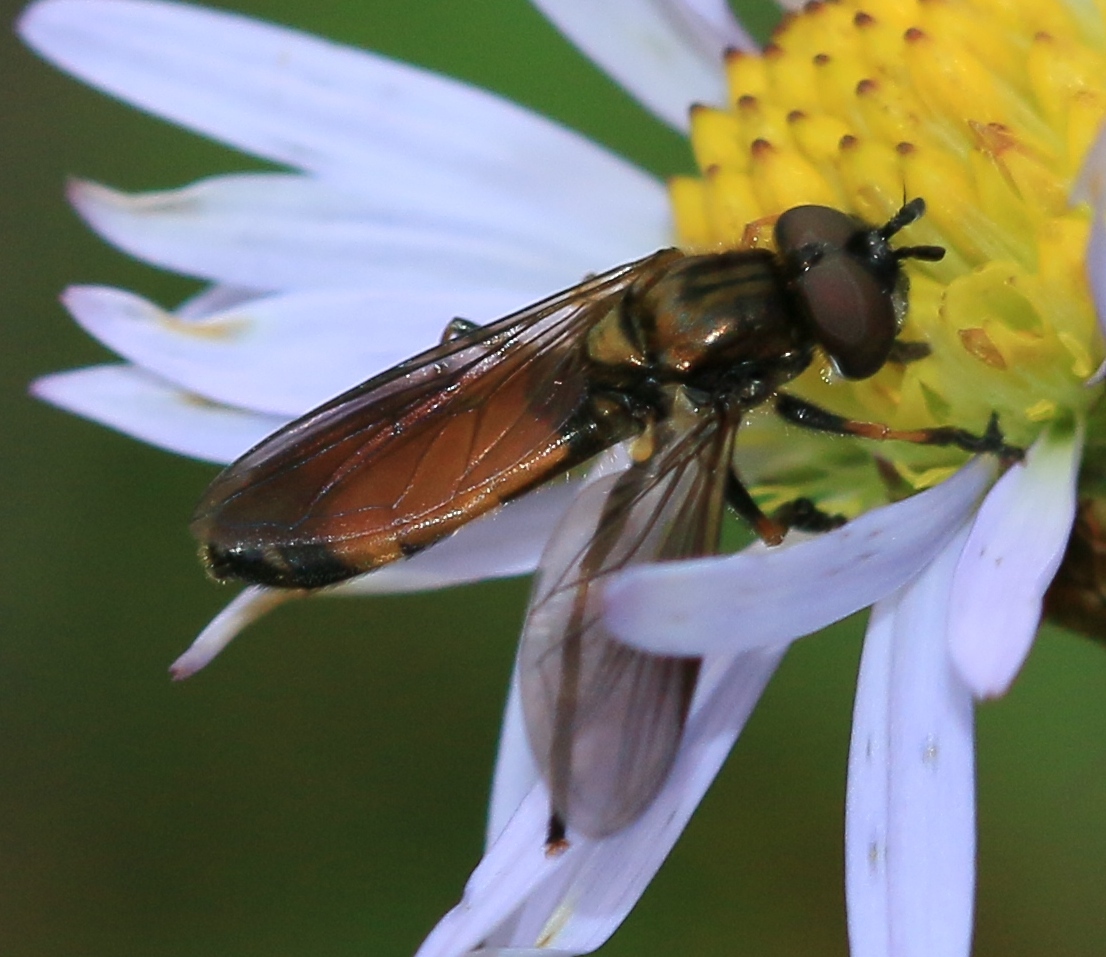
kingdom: Animalia
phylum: Arthropoda
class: Insecta
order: Diptera
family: Syrphidae
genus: Pyrophaena
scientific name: Pyrophaena granditarsa
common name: Hornhand sedgesitter
